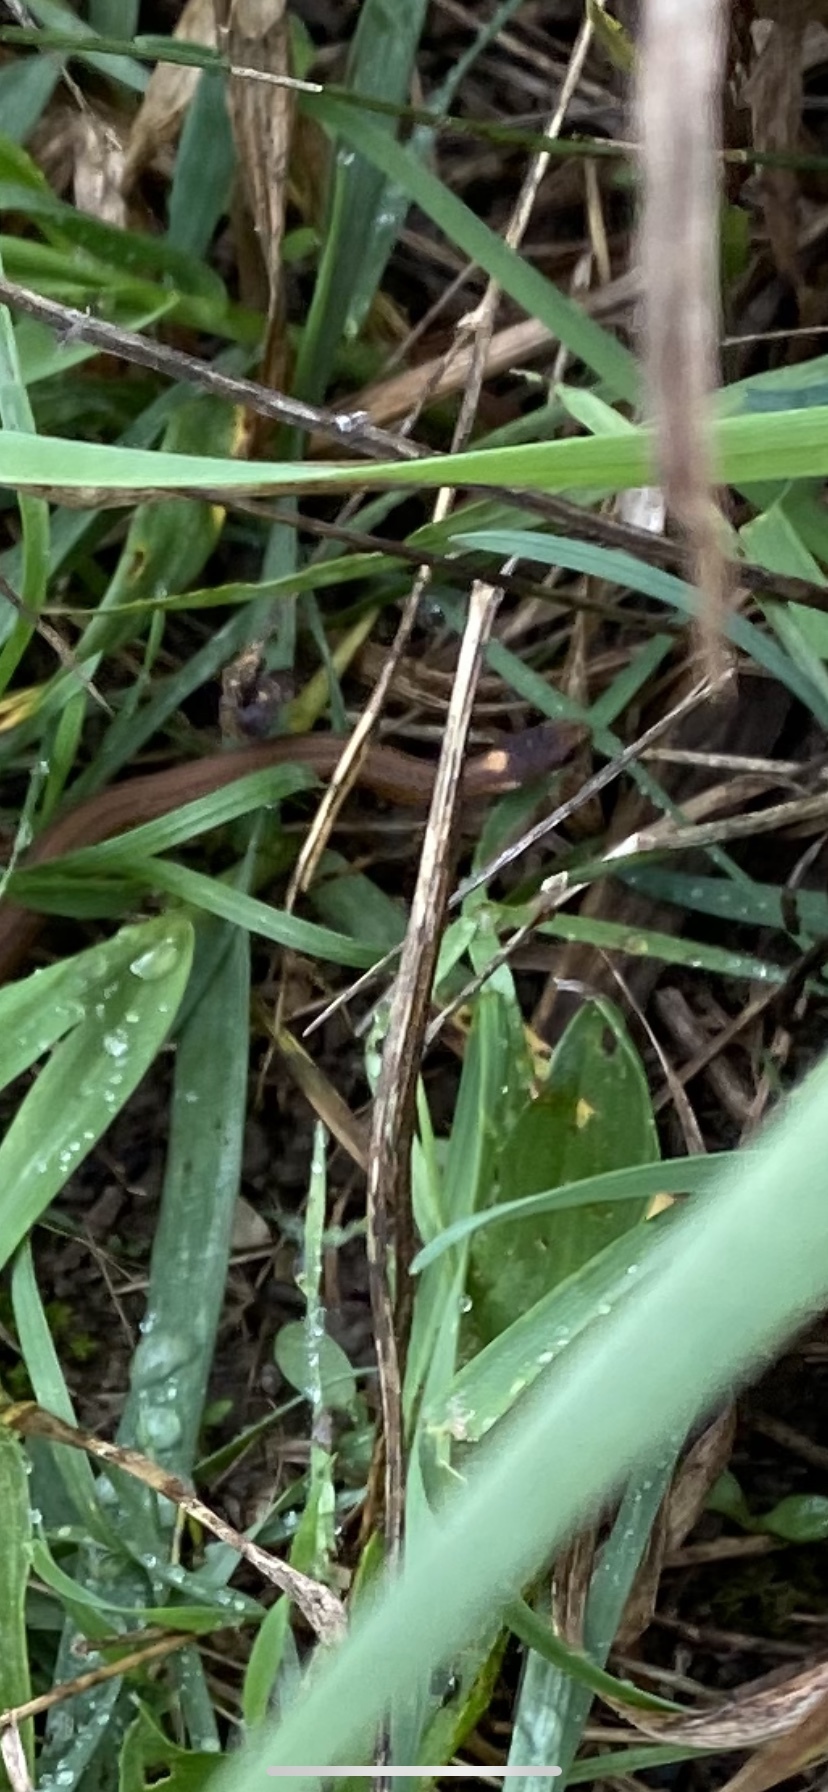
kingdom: Animalia
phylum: Chordata
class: Squamata
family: Colubridae
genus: Storeria
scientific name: Storeria occipitomaculata
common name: Redbelly snake
